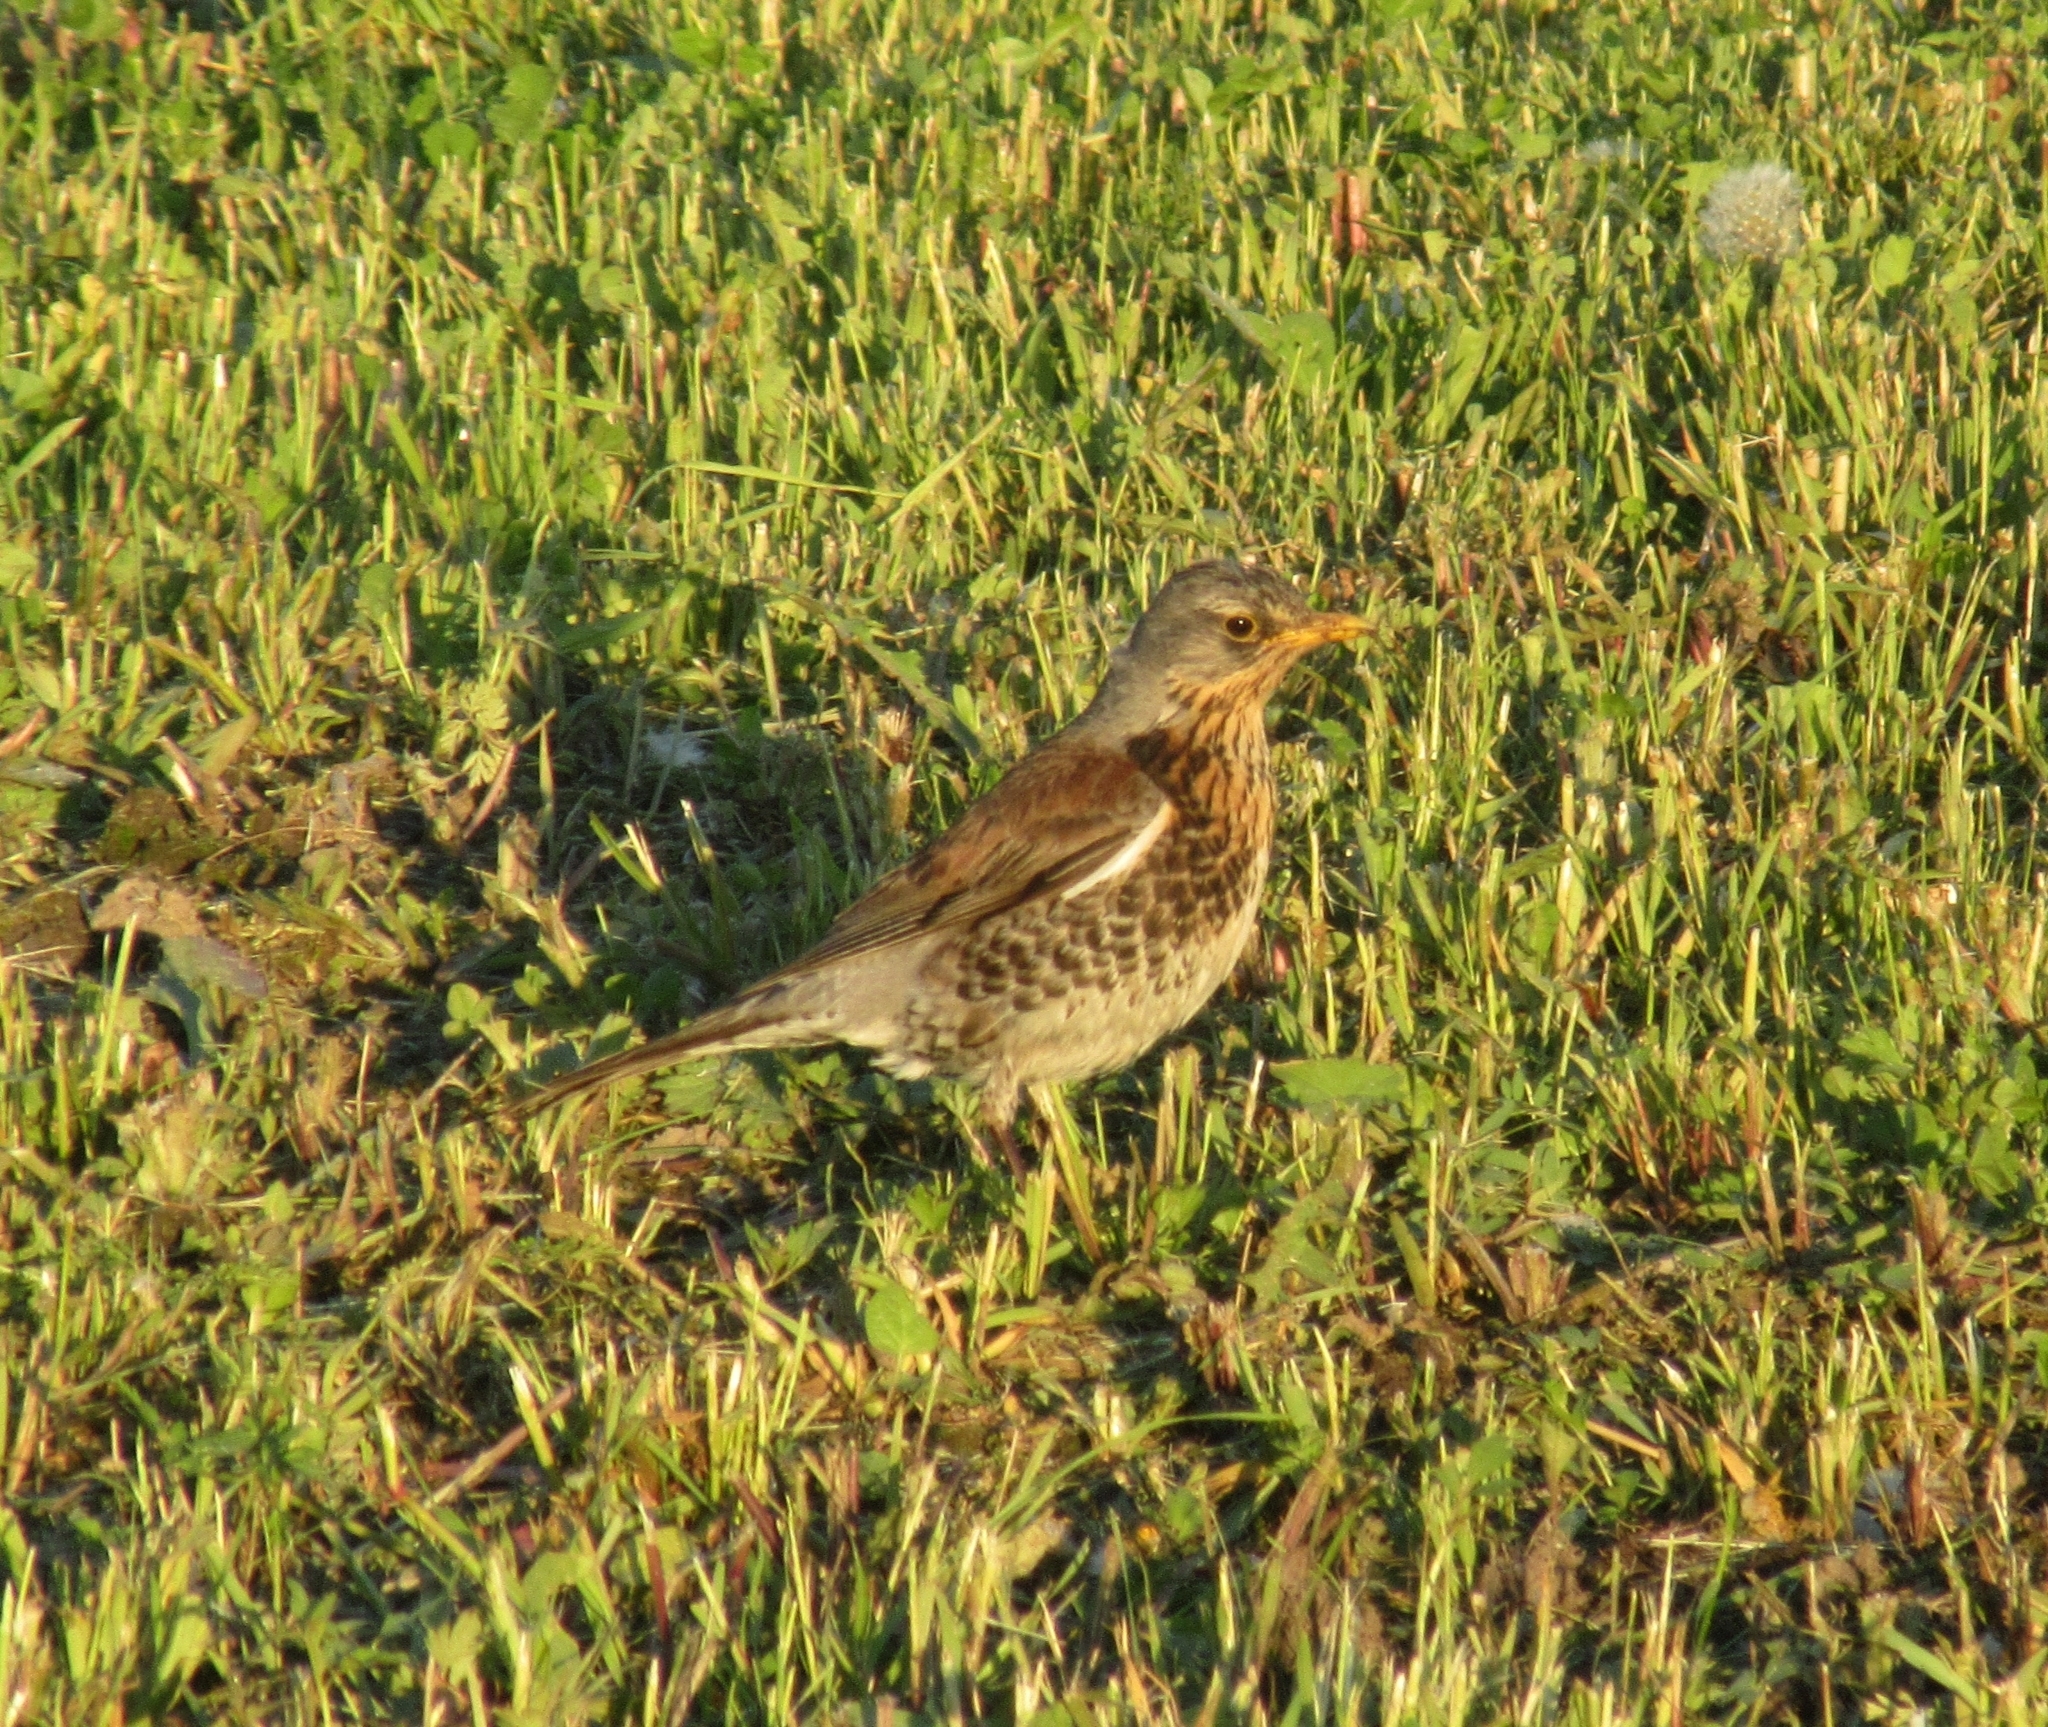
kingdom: Animalia
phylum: Chordata
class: Aves
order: Passeriformes
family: Turdidae
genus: Turdus
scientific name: Turdus pilaris
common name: Fieldfare
